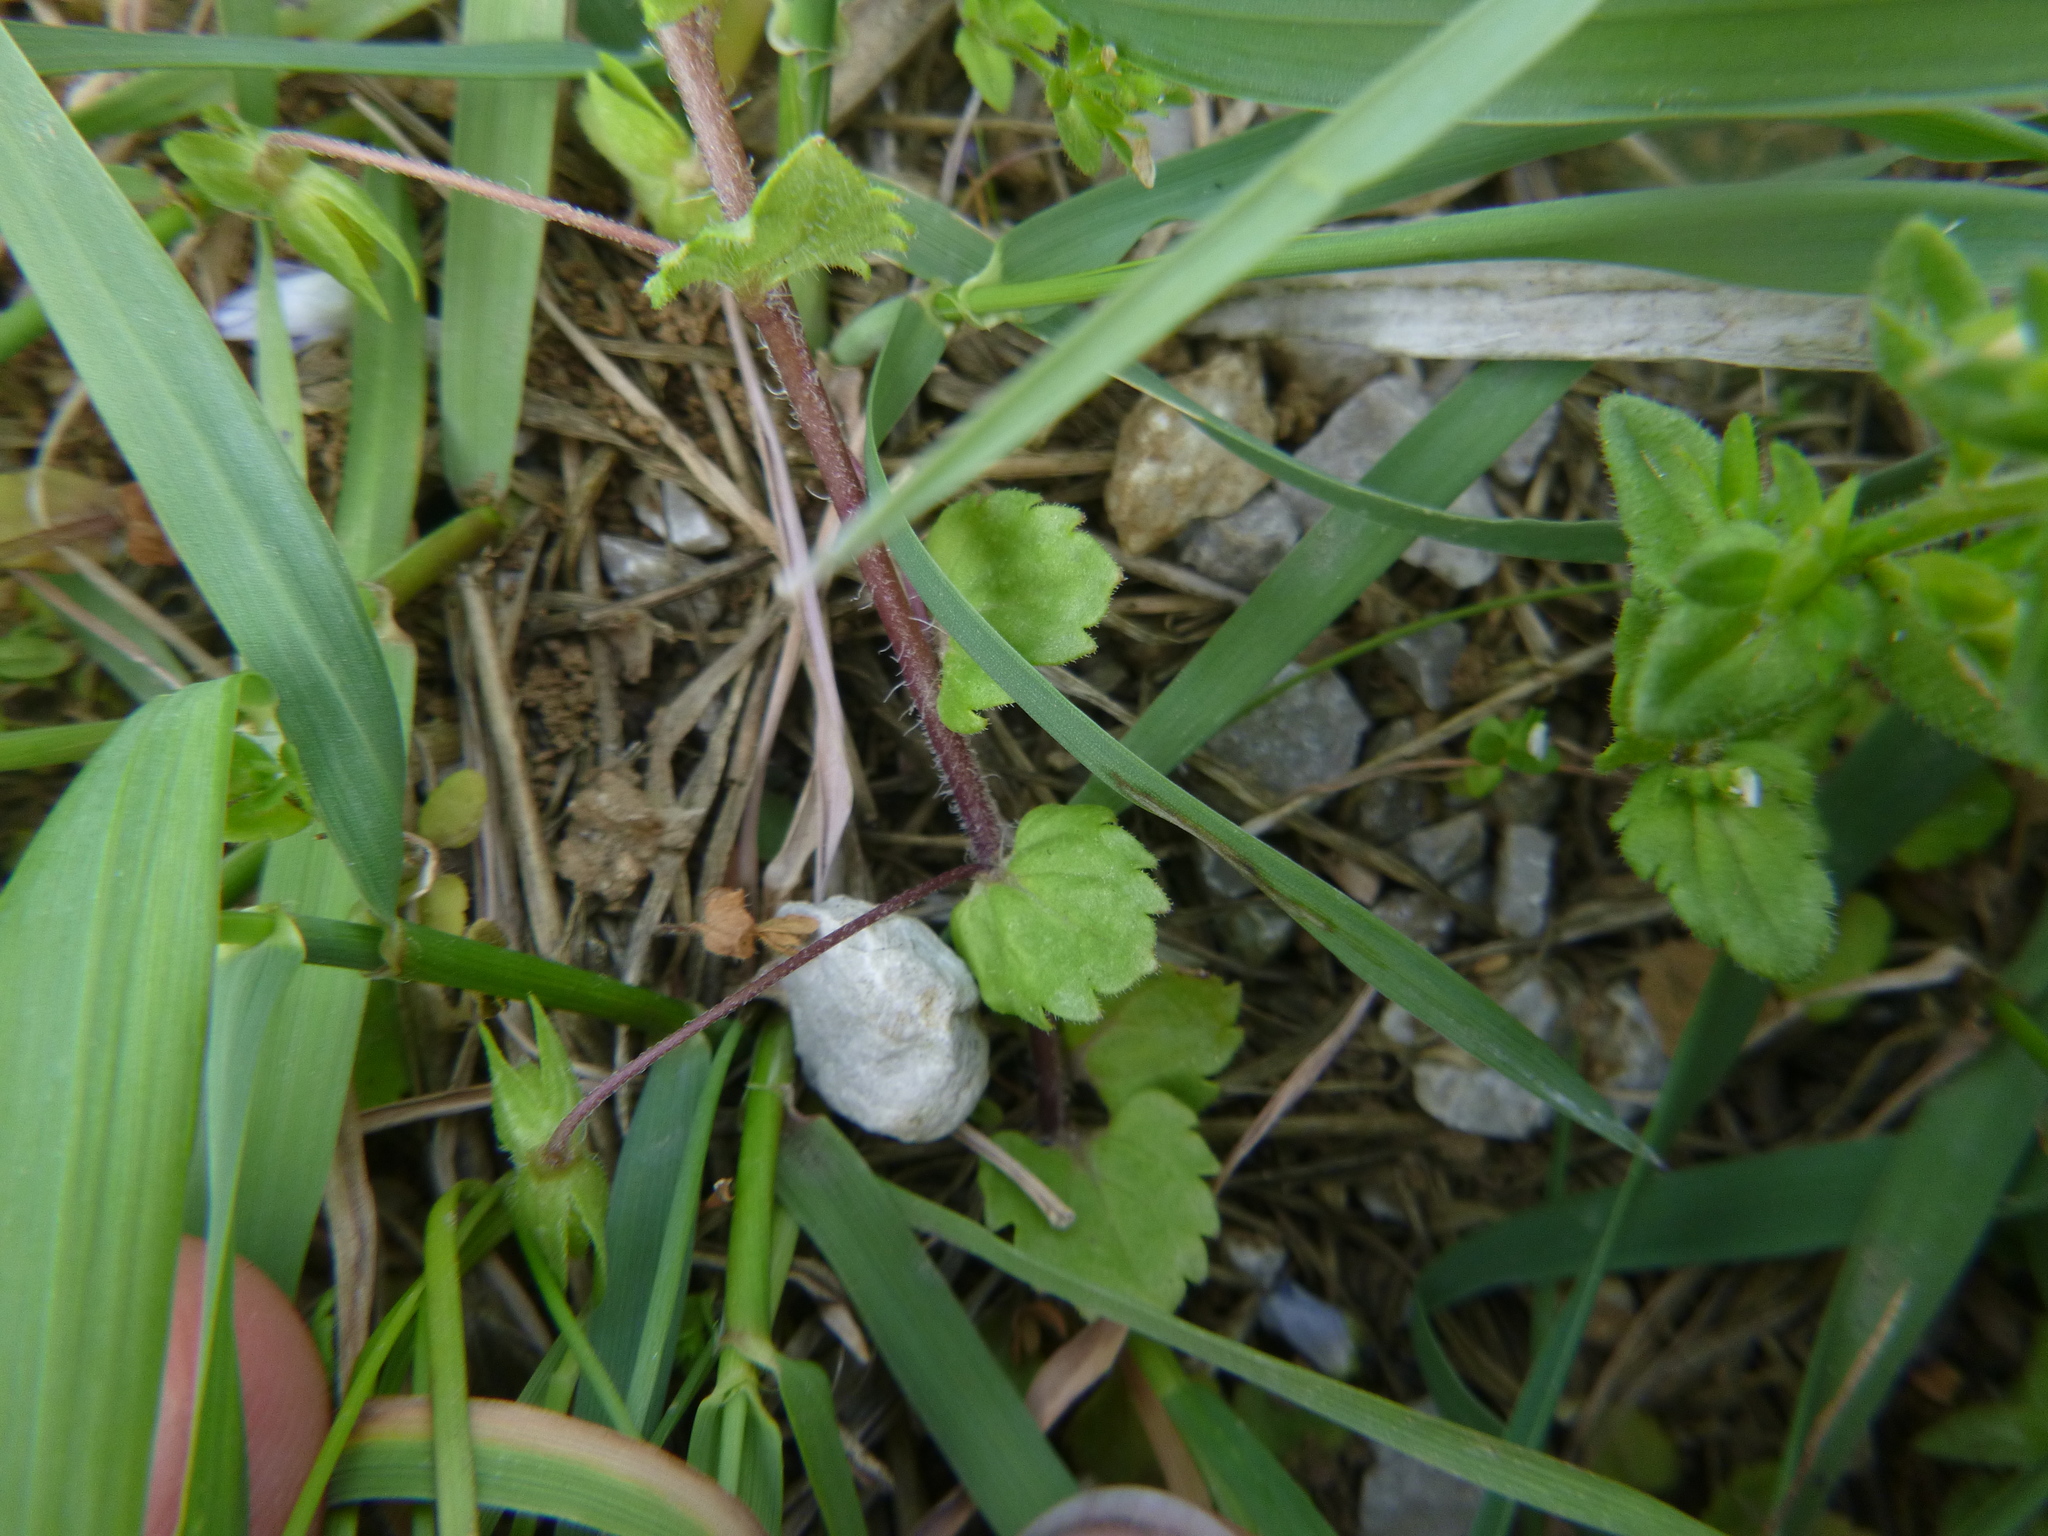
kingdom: Plantae
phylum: Tracheophyta
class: Magnoliopsida
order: Lamiales
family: Plantaginaceae
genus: Veronica
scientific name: Veronica persica
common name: Common field-speedwell
